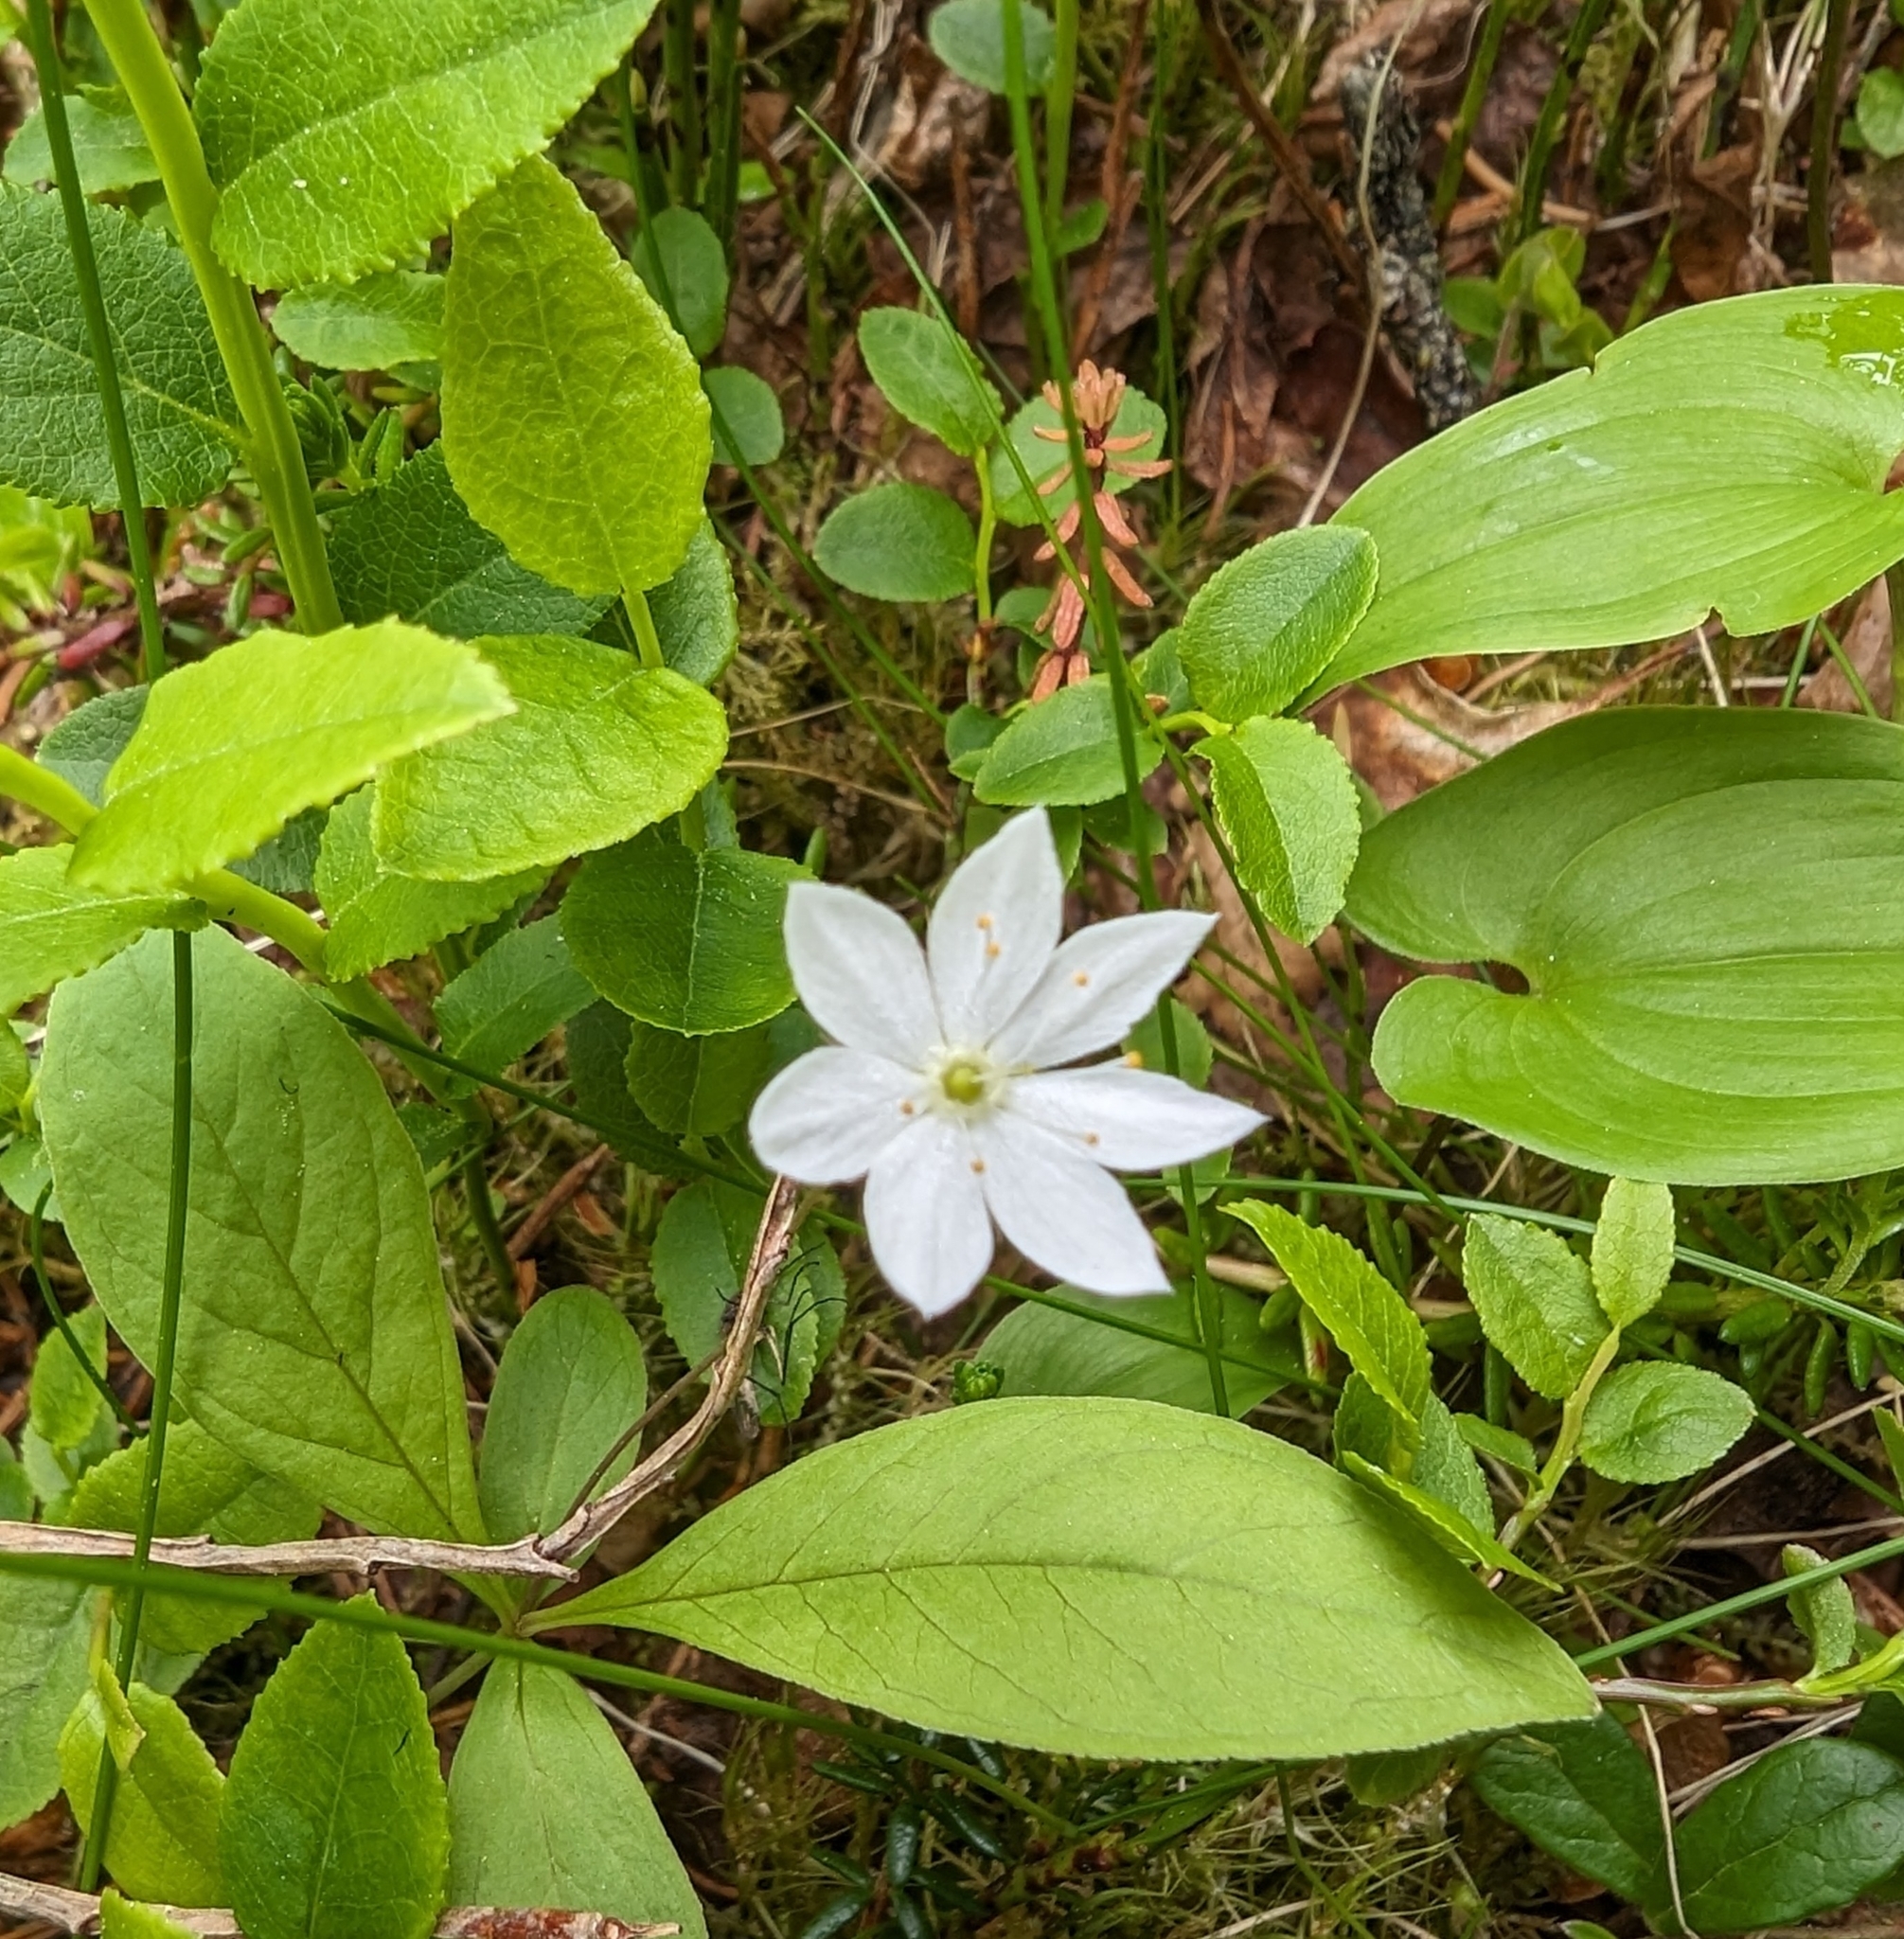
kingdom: Plantae
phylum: Tracheophyta
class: Magnoliopsida
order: Ericales
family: Primulaceae
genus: Lysimachia
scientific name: Lysimachia europaea
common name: Arctic starflower
